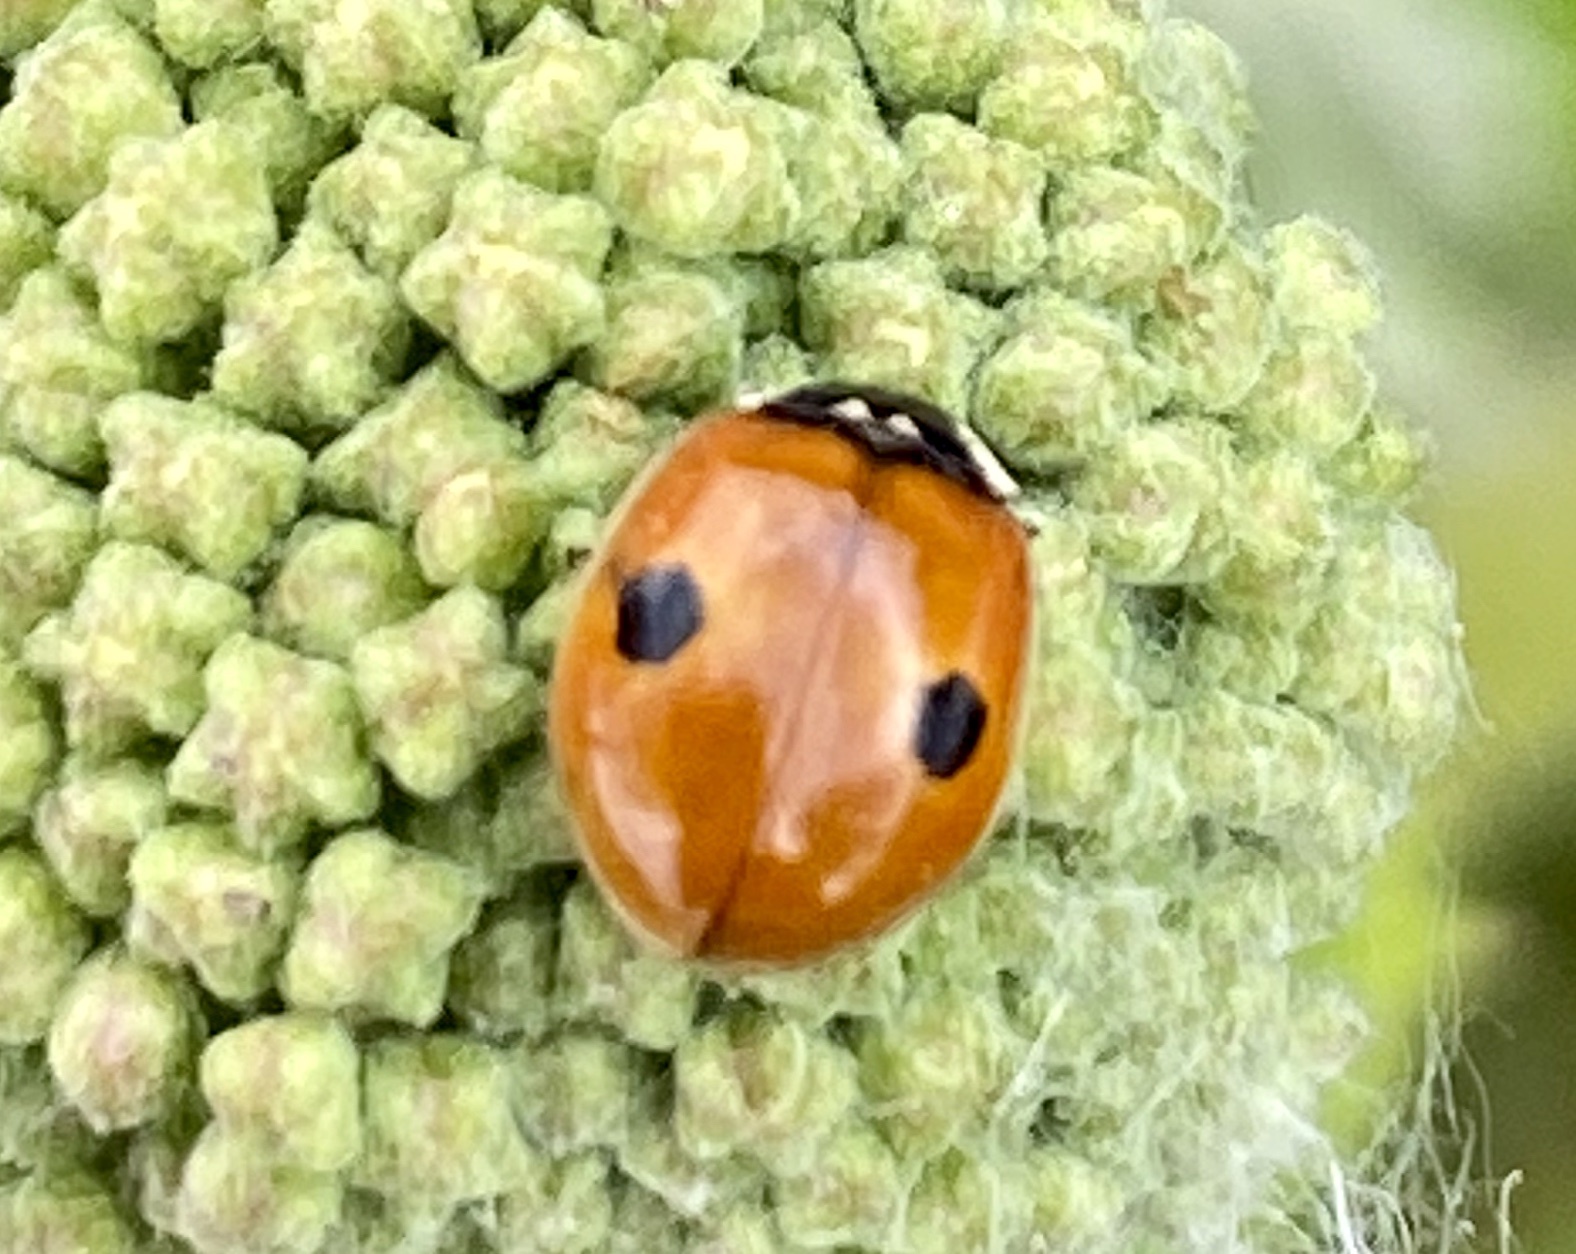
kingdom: Animalia
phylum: Arthropoda
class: Insecta
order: Coleoptera
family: Coccinellidae
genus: Adalia
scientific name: Adalia bipunctata
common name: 2-spot ladybird
